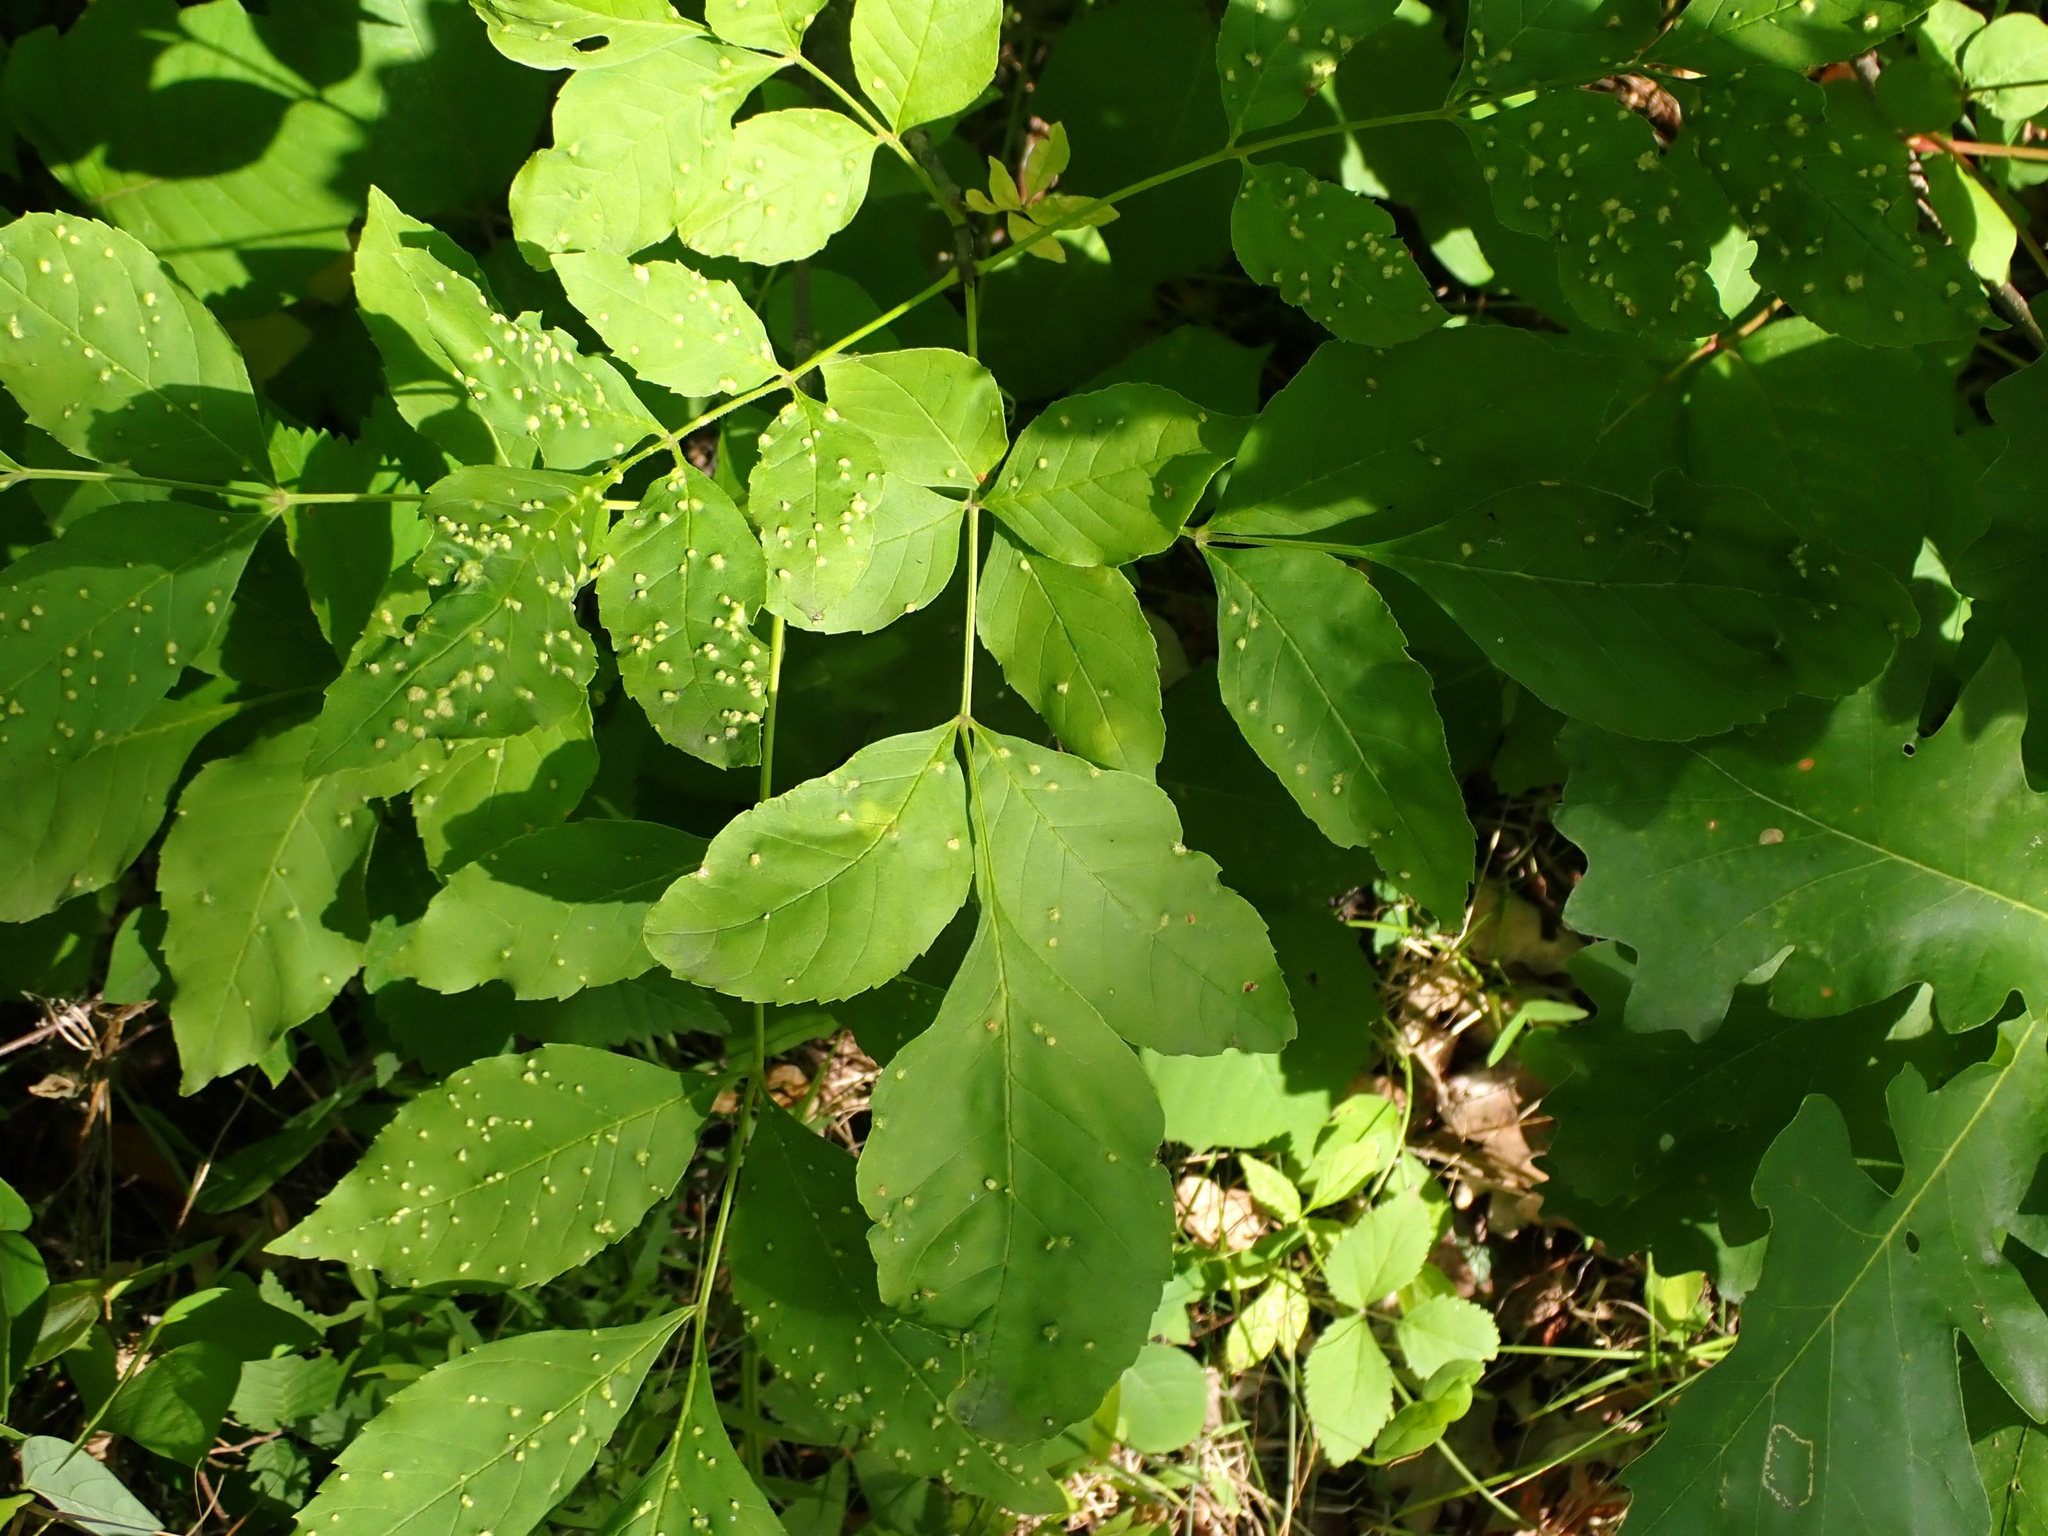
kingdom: Plantae
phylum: Tracheophyta
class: Magnoliopsida
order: Lamiales
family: Oleaceae
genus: Fraxinus
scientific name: Fraxinus pennsylvanica
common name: Green ash
